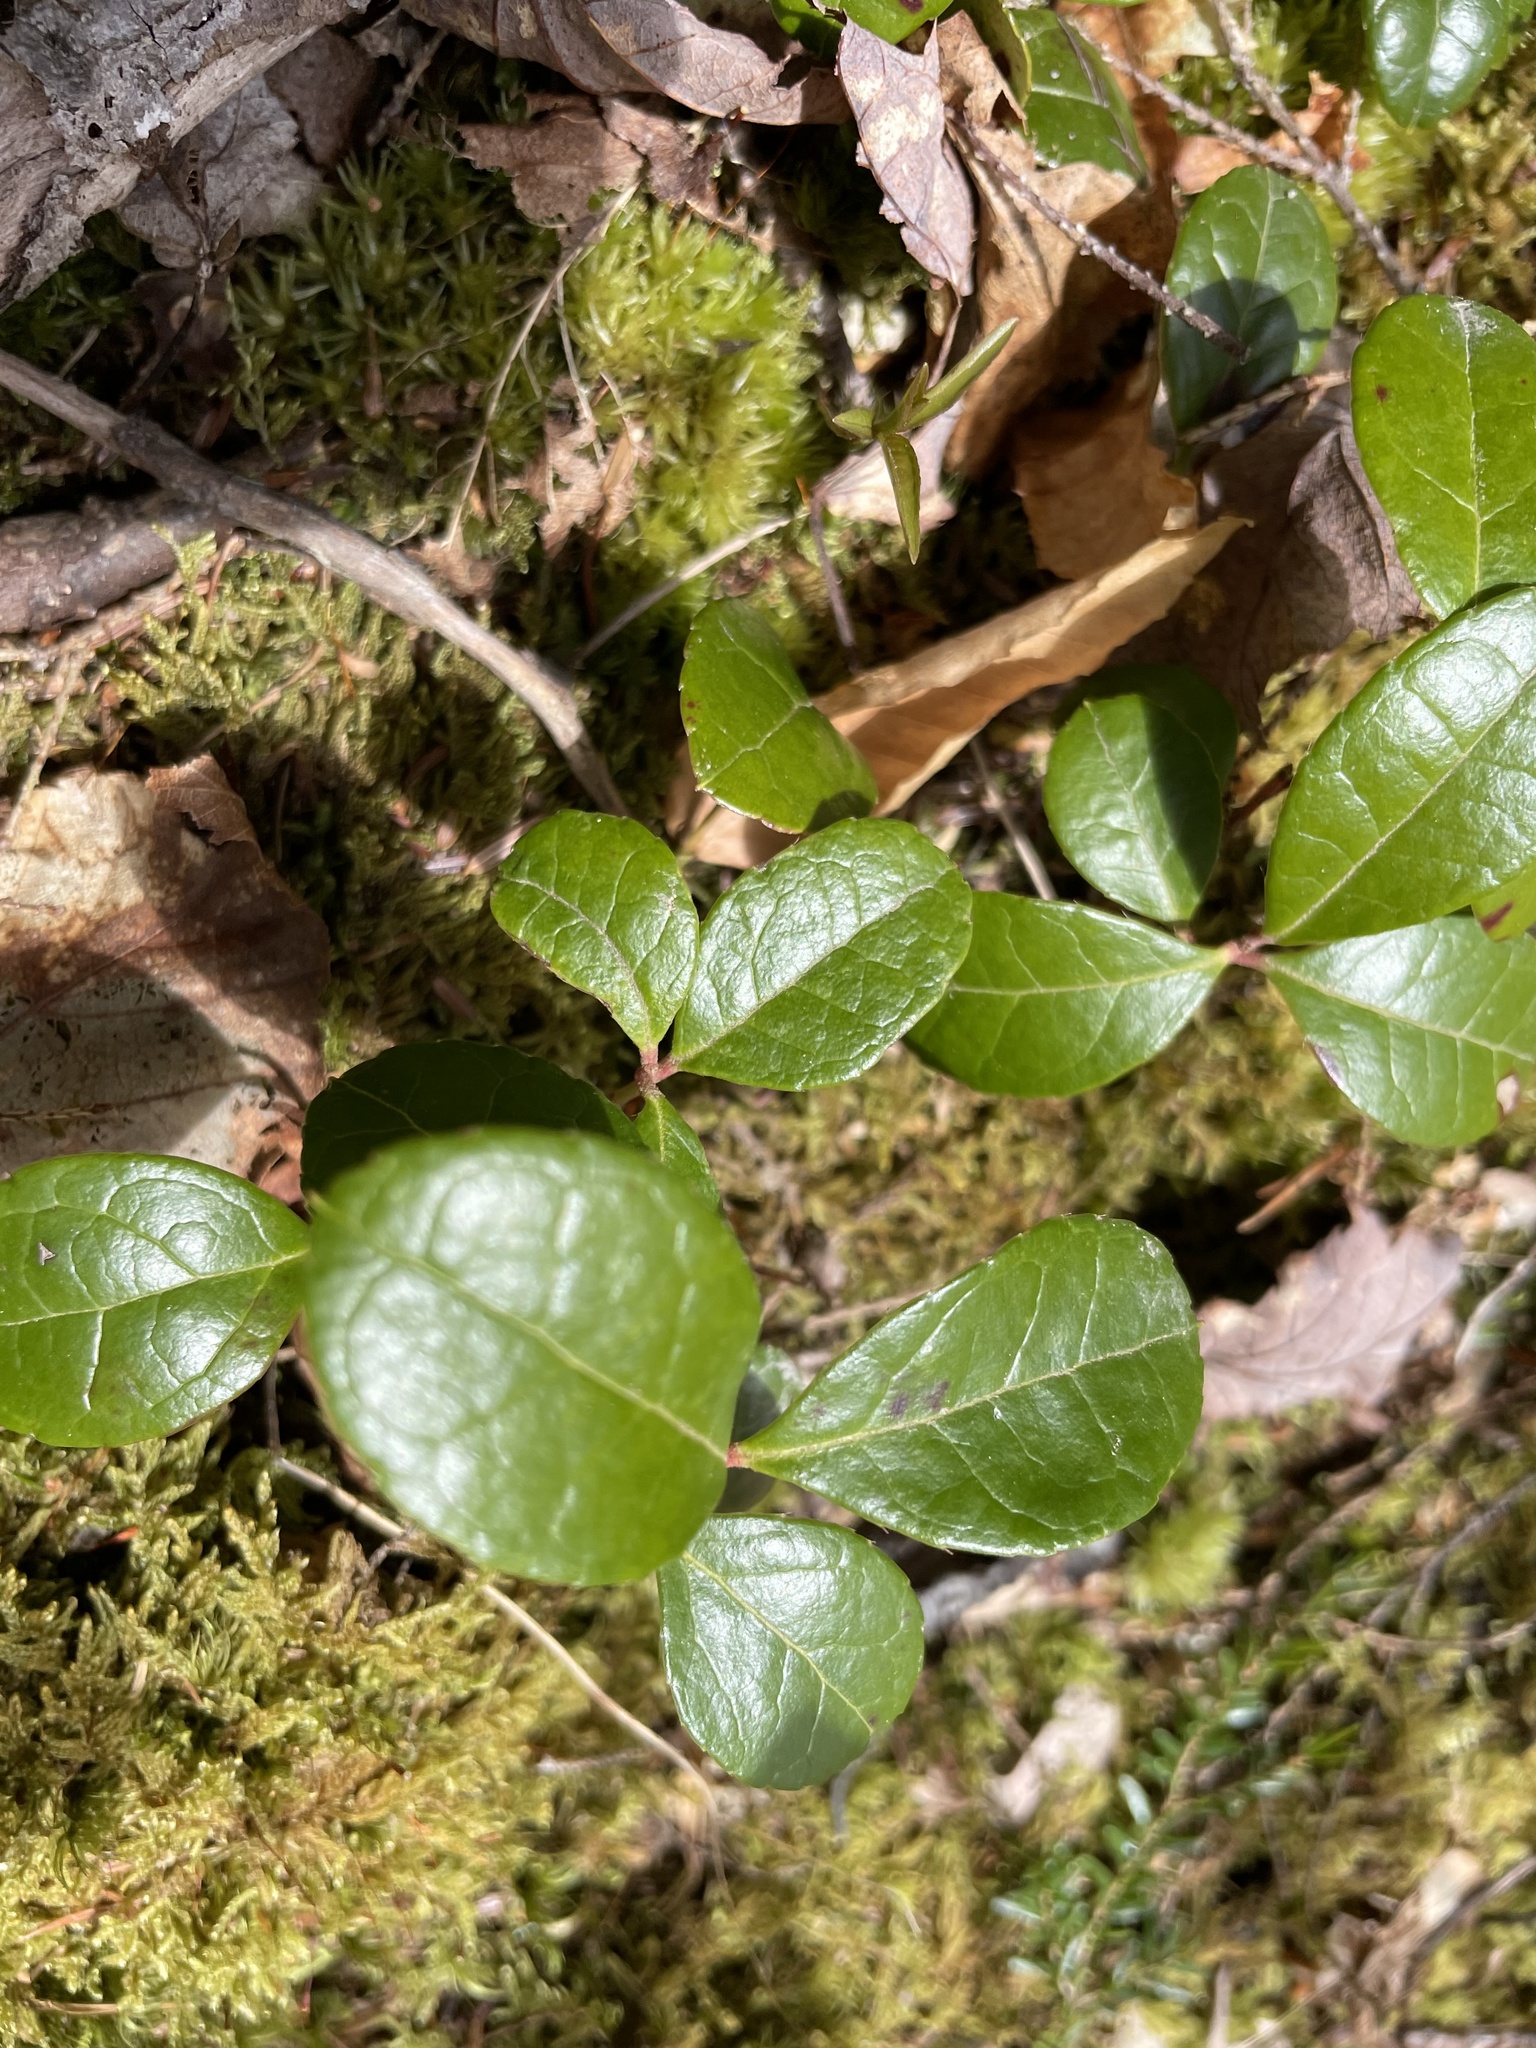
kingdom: Plantae
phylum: Tracheophyta
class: Magnoliopsida
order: Ericales
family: Ericaceae
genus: Gaultheria
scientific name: Gaultheria procumbens
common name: Checkerberry
